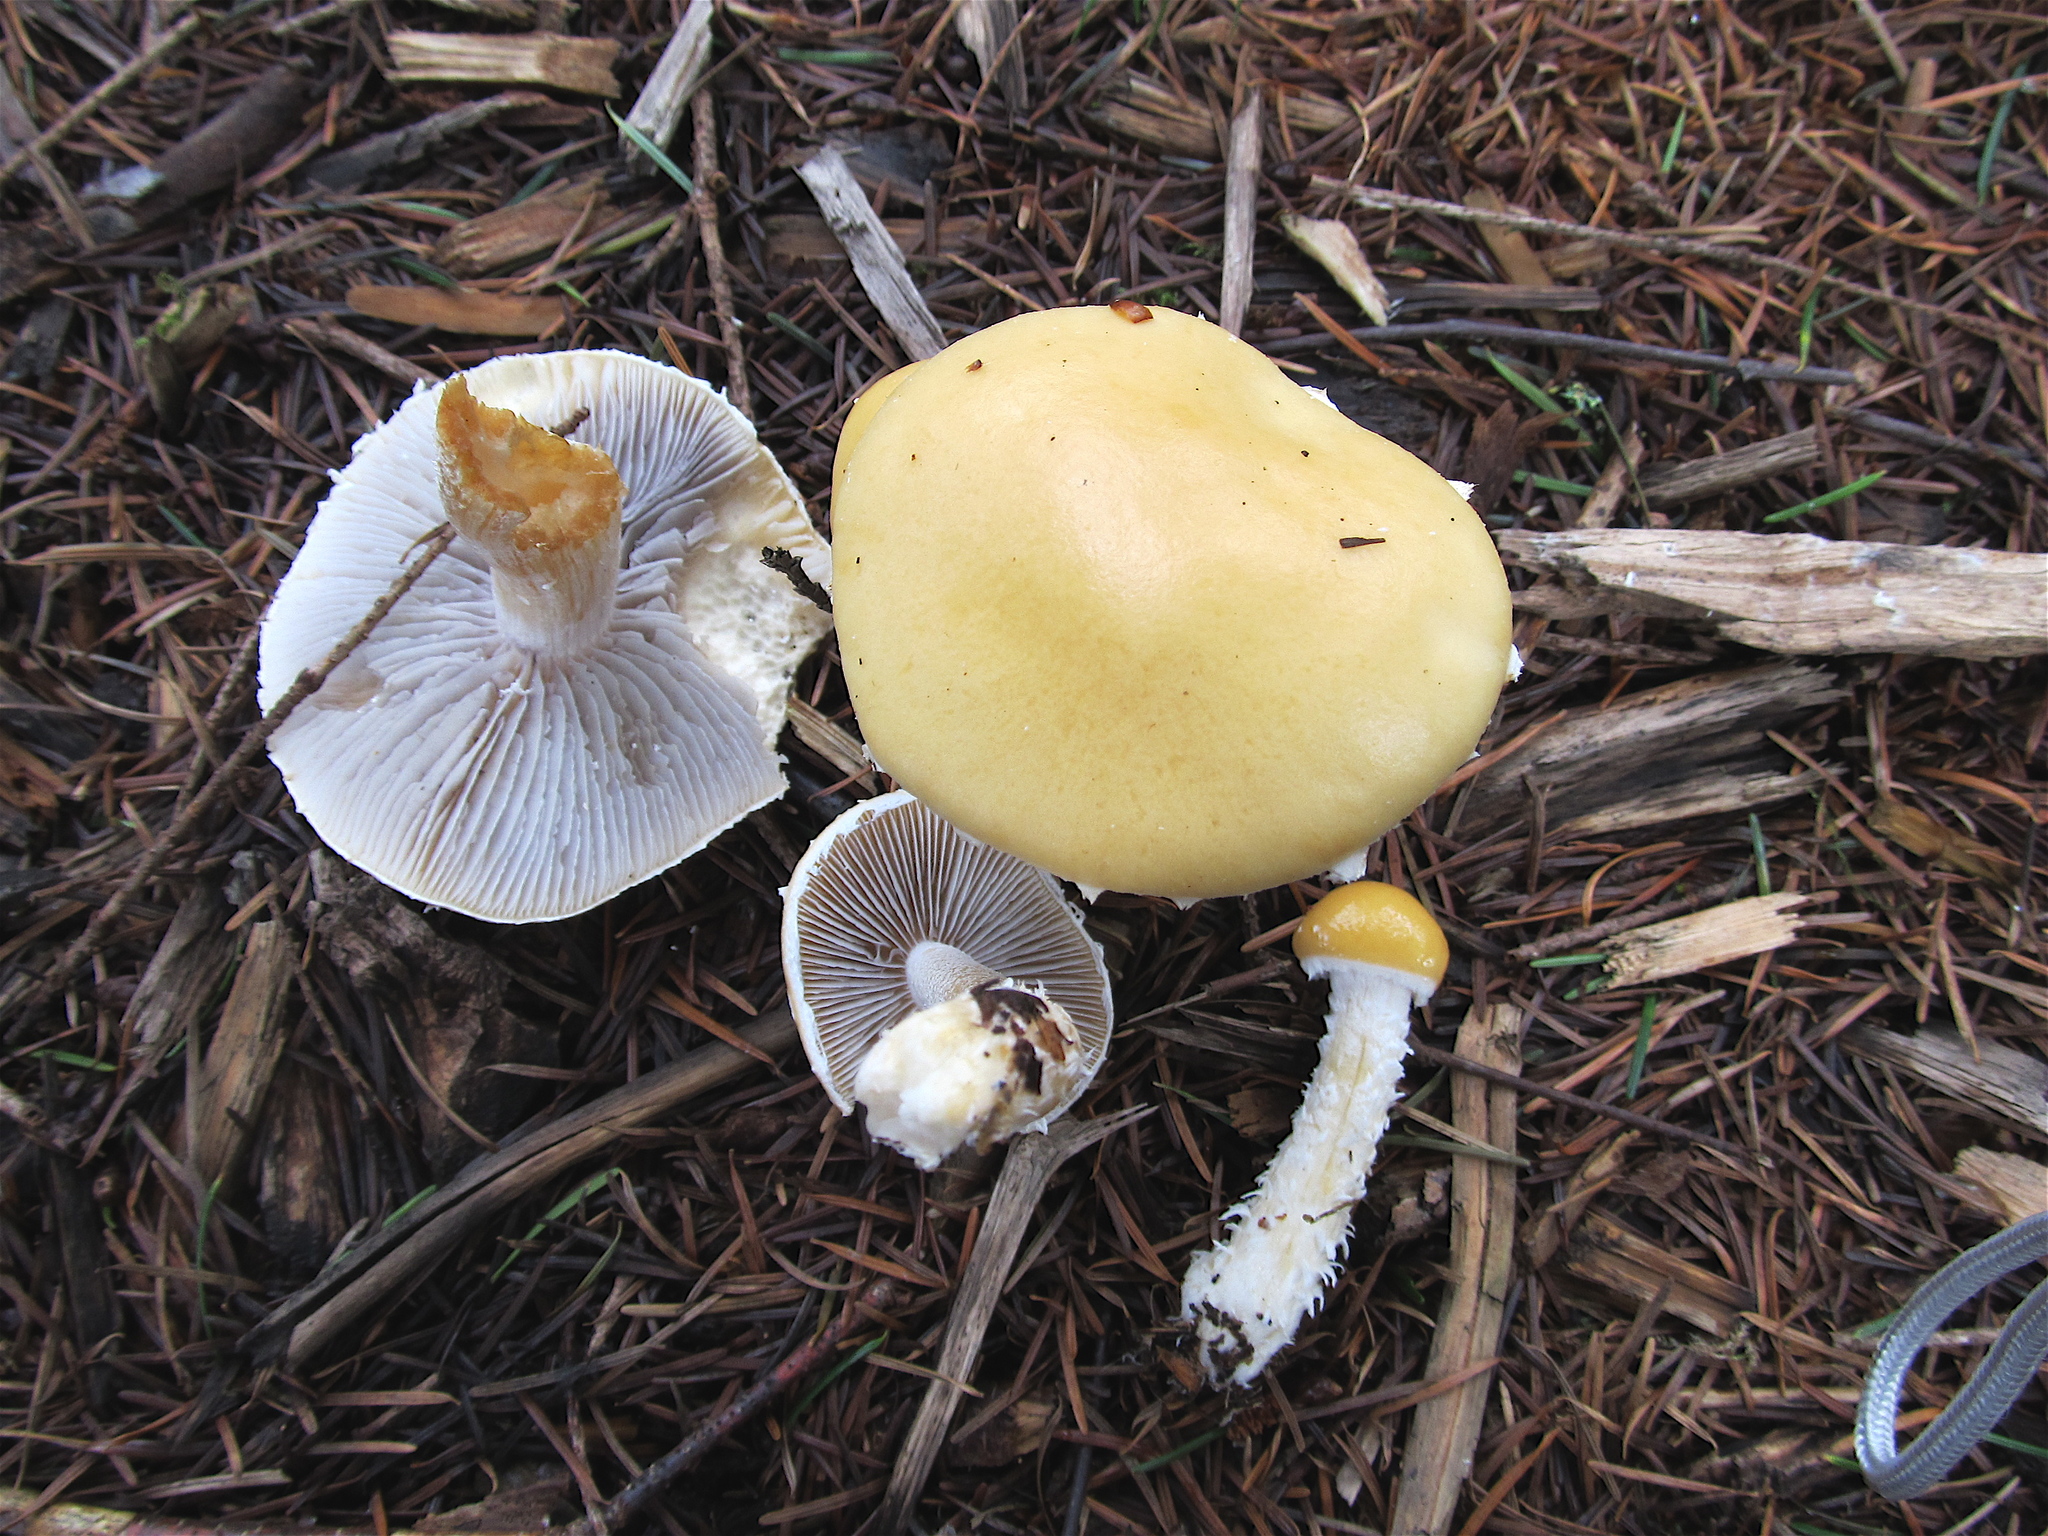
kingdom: Fungi
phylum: Basidiomycota
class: Agaricomycetes
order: Agaricales
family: Strophariaceae
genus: Stropharia
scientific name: Stropharia ambigua
